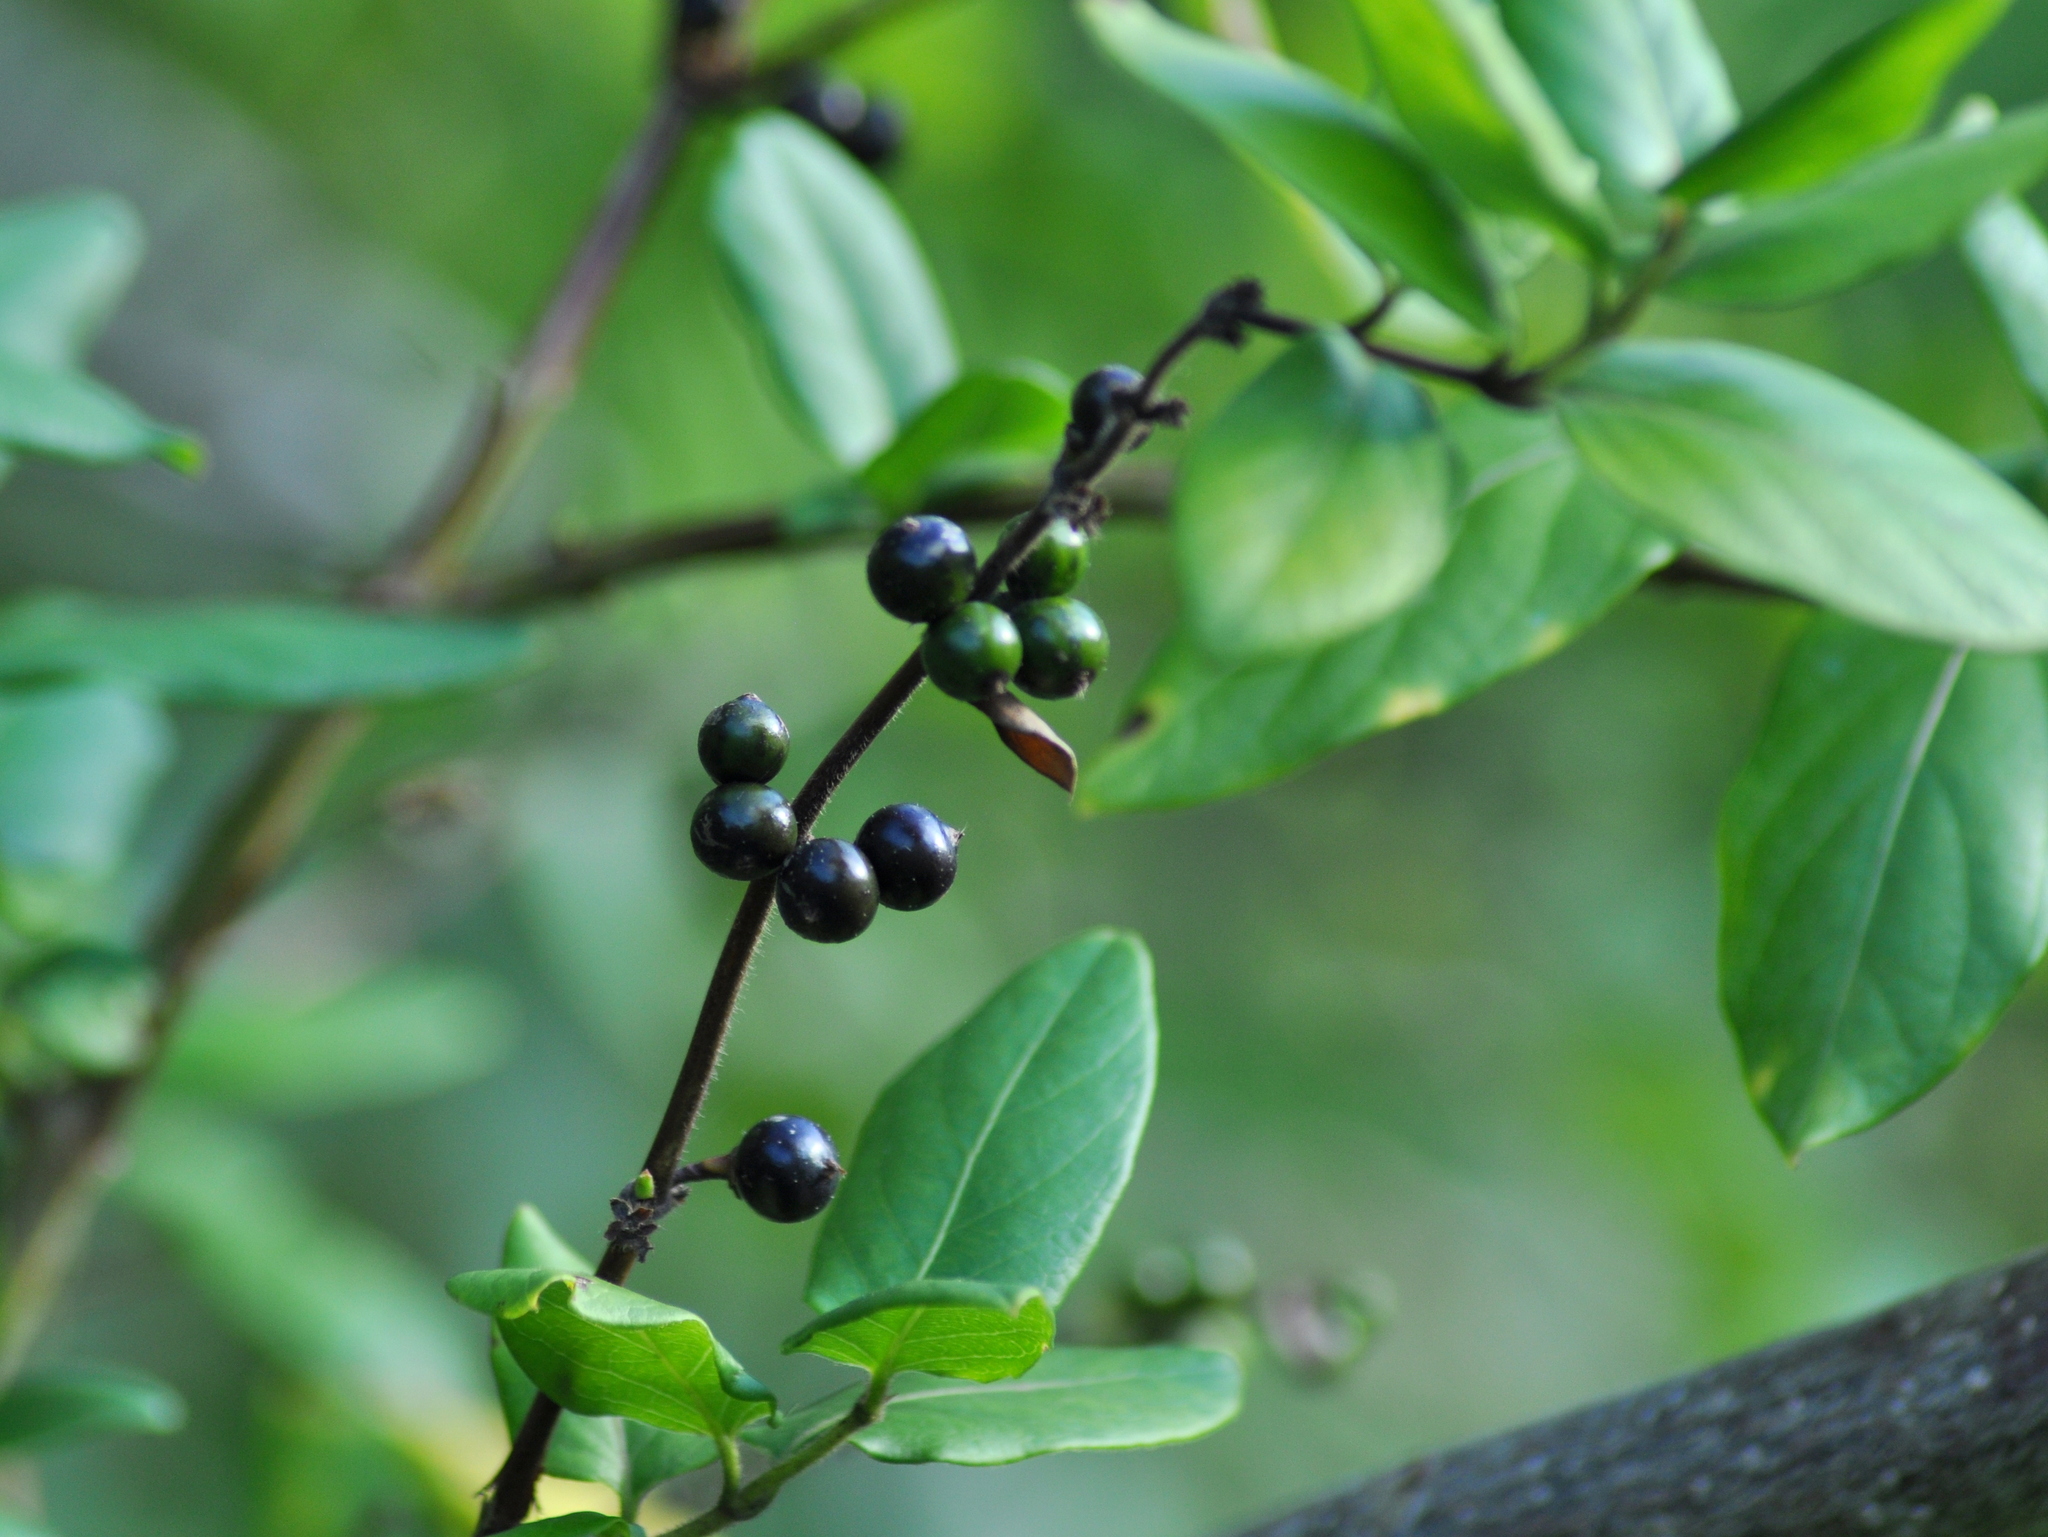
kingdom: Plantae
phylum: Tracheophyta
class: Magnoliopsida
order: Dipsacales
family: Caprifoliaceae
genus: Lonicera
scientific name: Lonicera japonica
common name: Japanese honeysuckle
